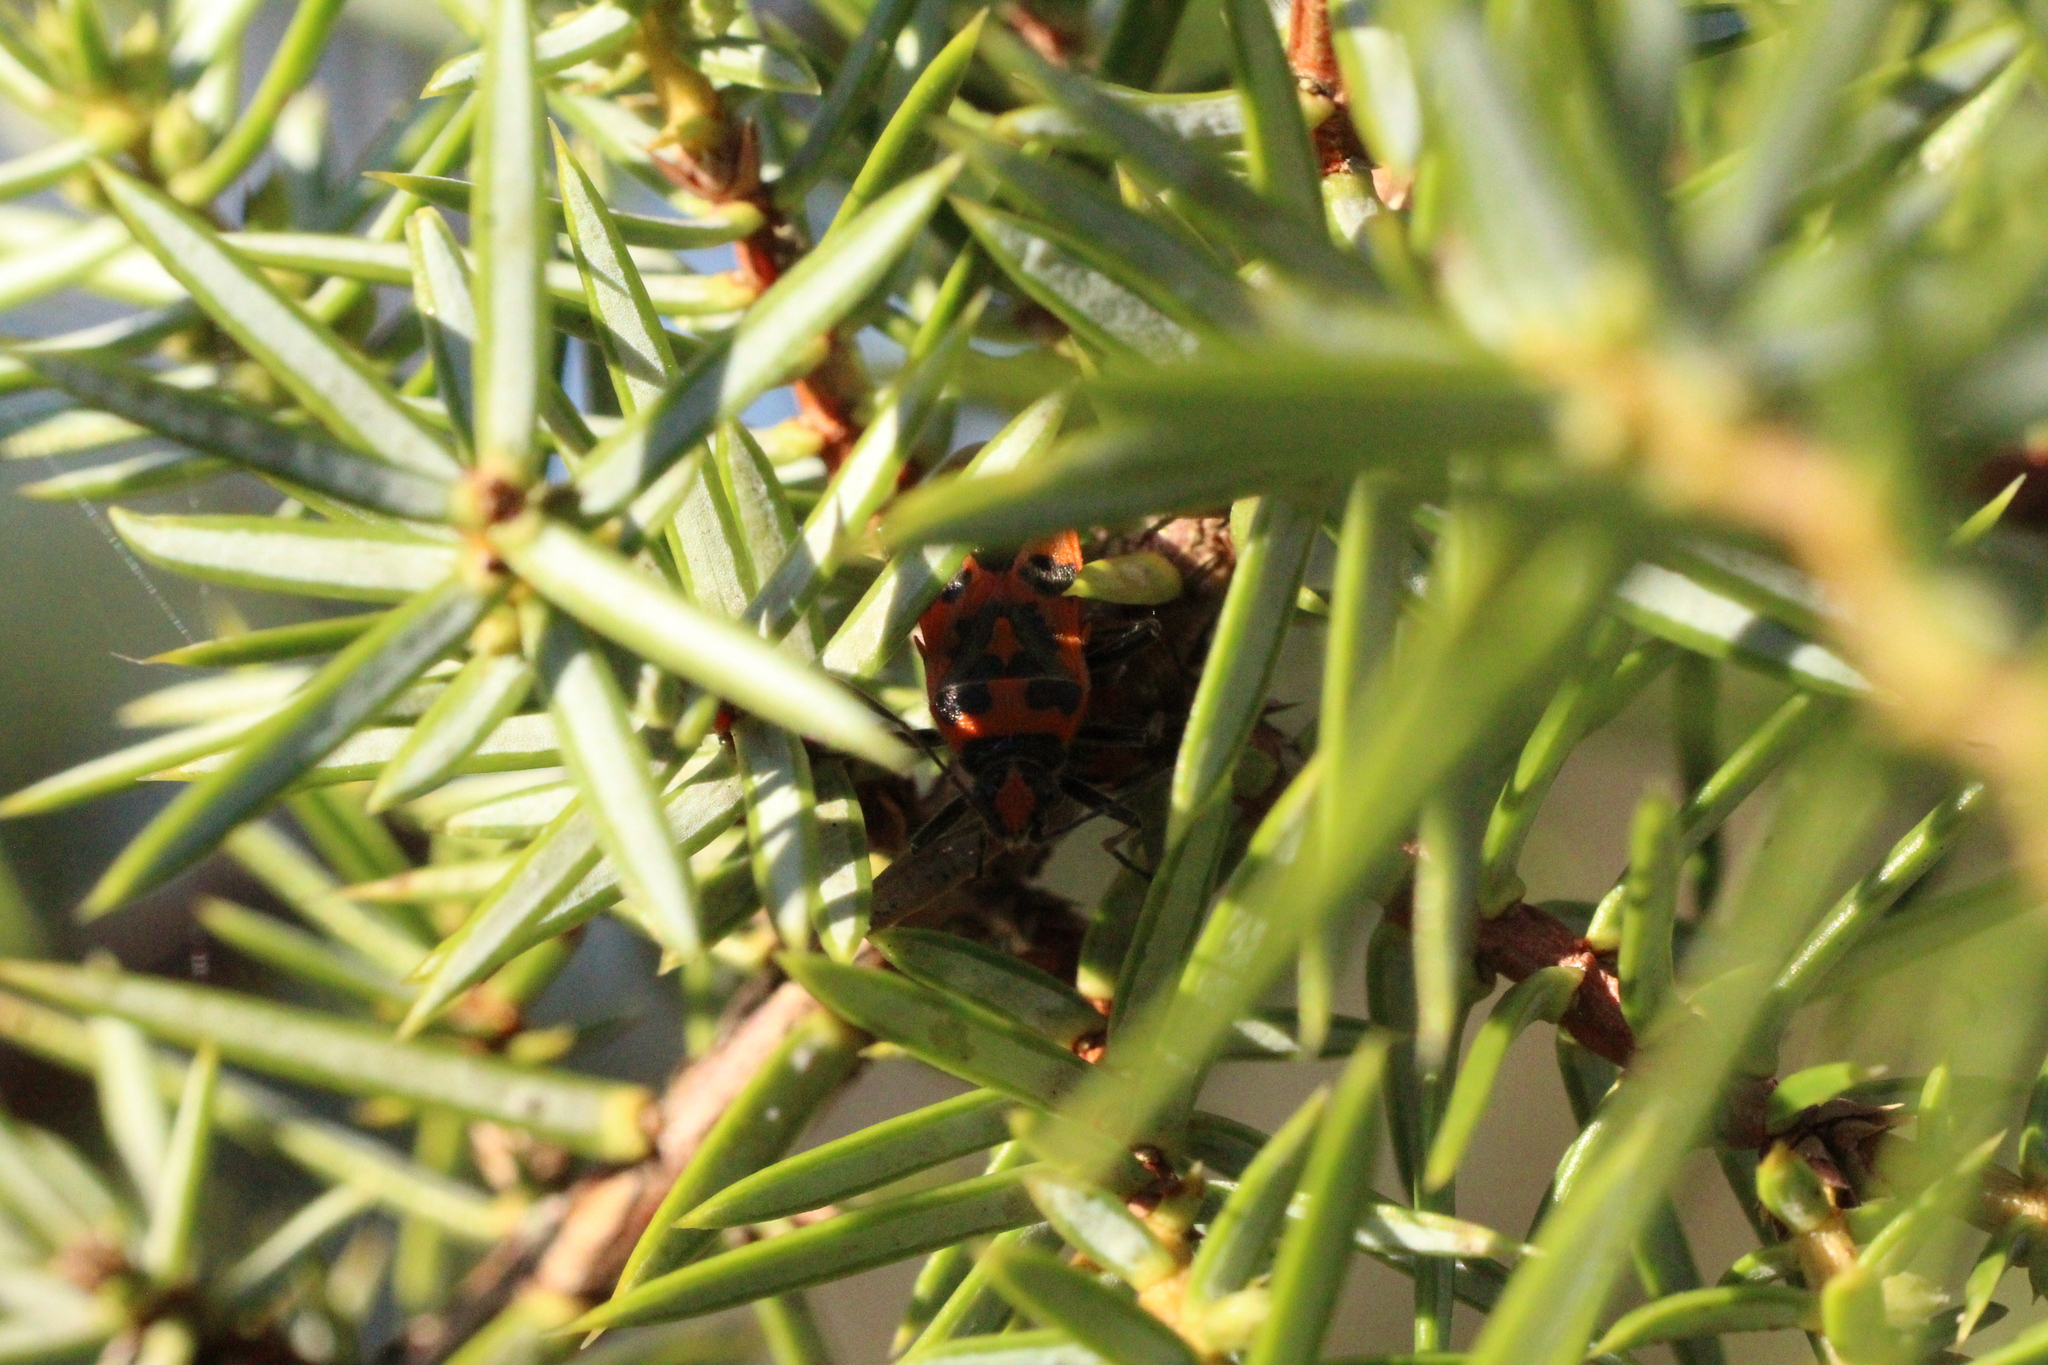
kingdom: Animalia
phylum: Arthropoda
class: Insecta
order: Hemiptera
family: Rhopalidae
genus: Corizus
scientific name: Corizus hyoscyami
